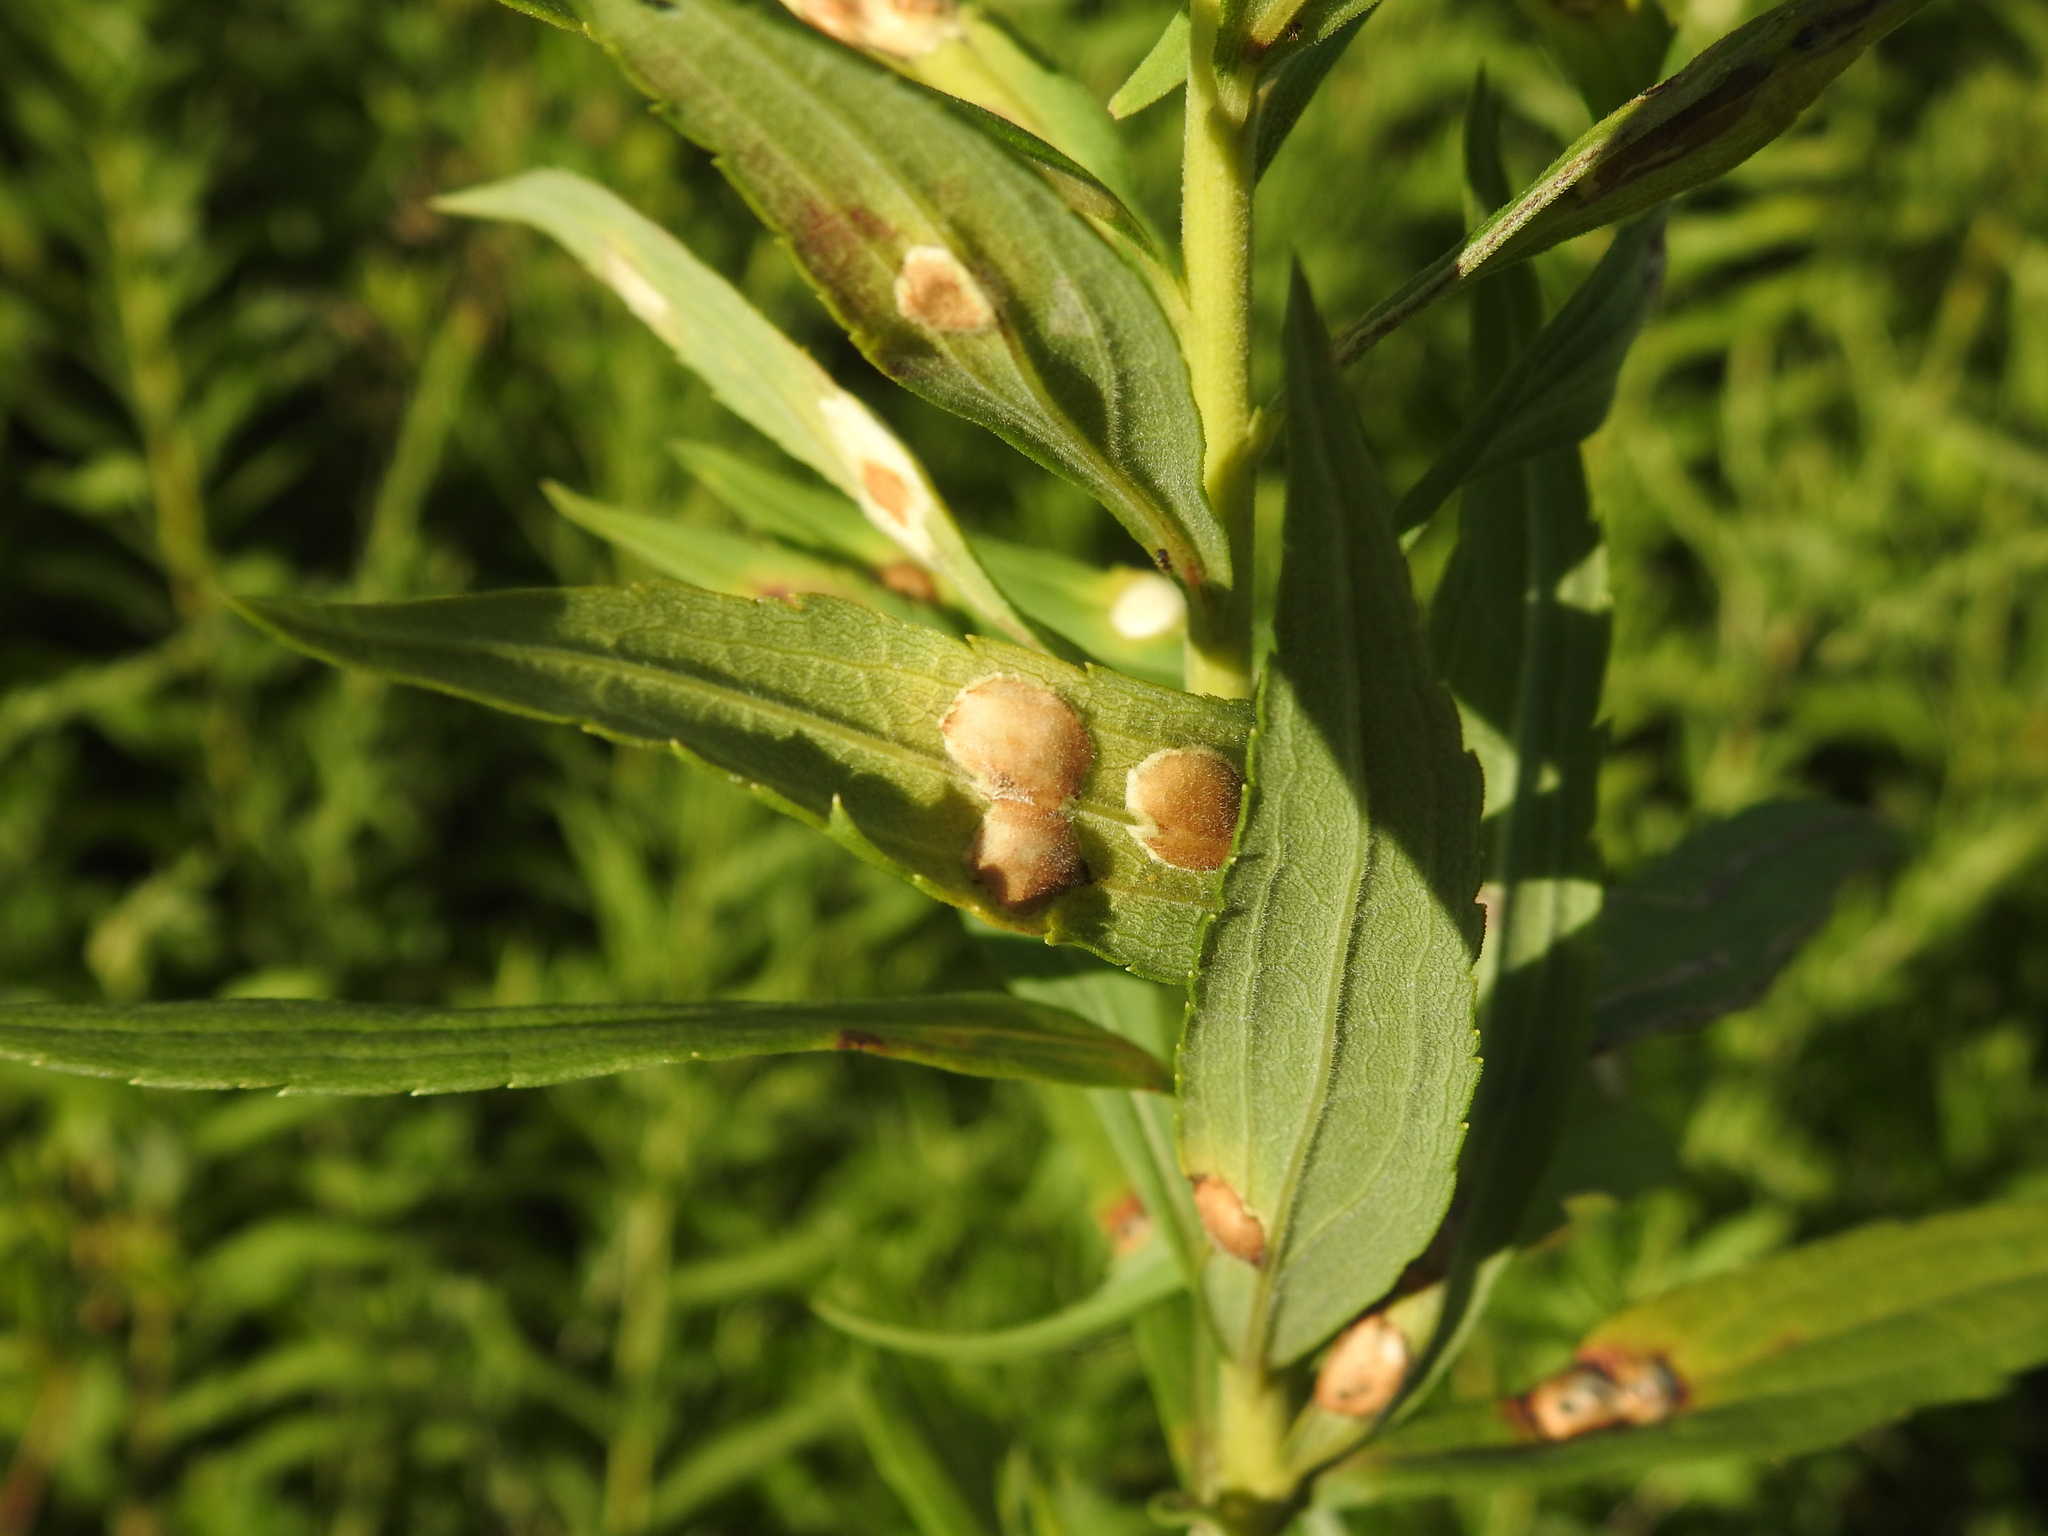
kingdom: Animalia
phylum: Arthropoda
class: Insecta
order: Diptera
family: Cecidomyiidae
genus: Asteromyia
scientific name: Asteromyia carbonifera
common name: Carbonifera goldenrod gall midge
